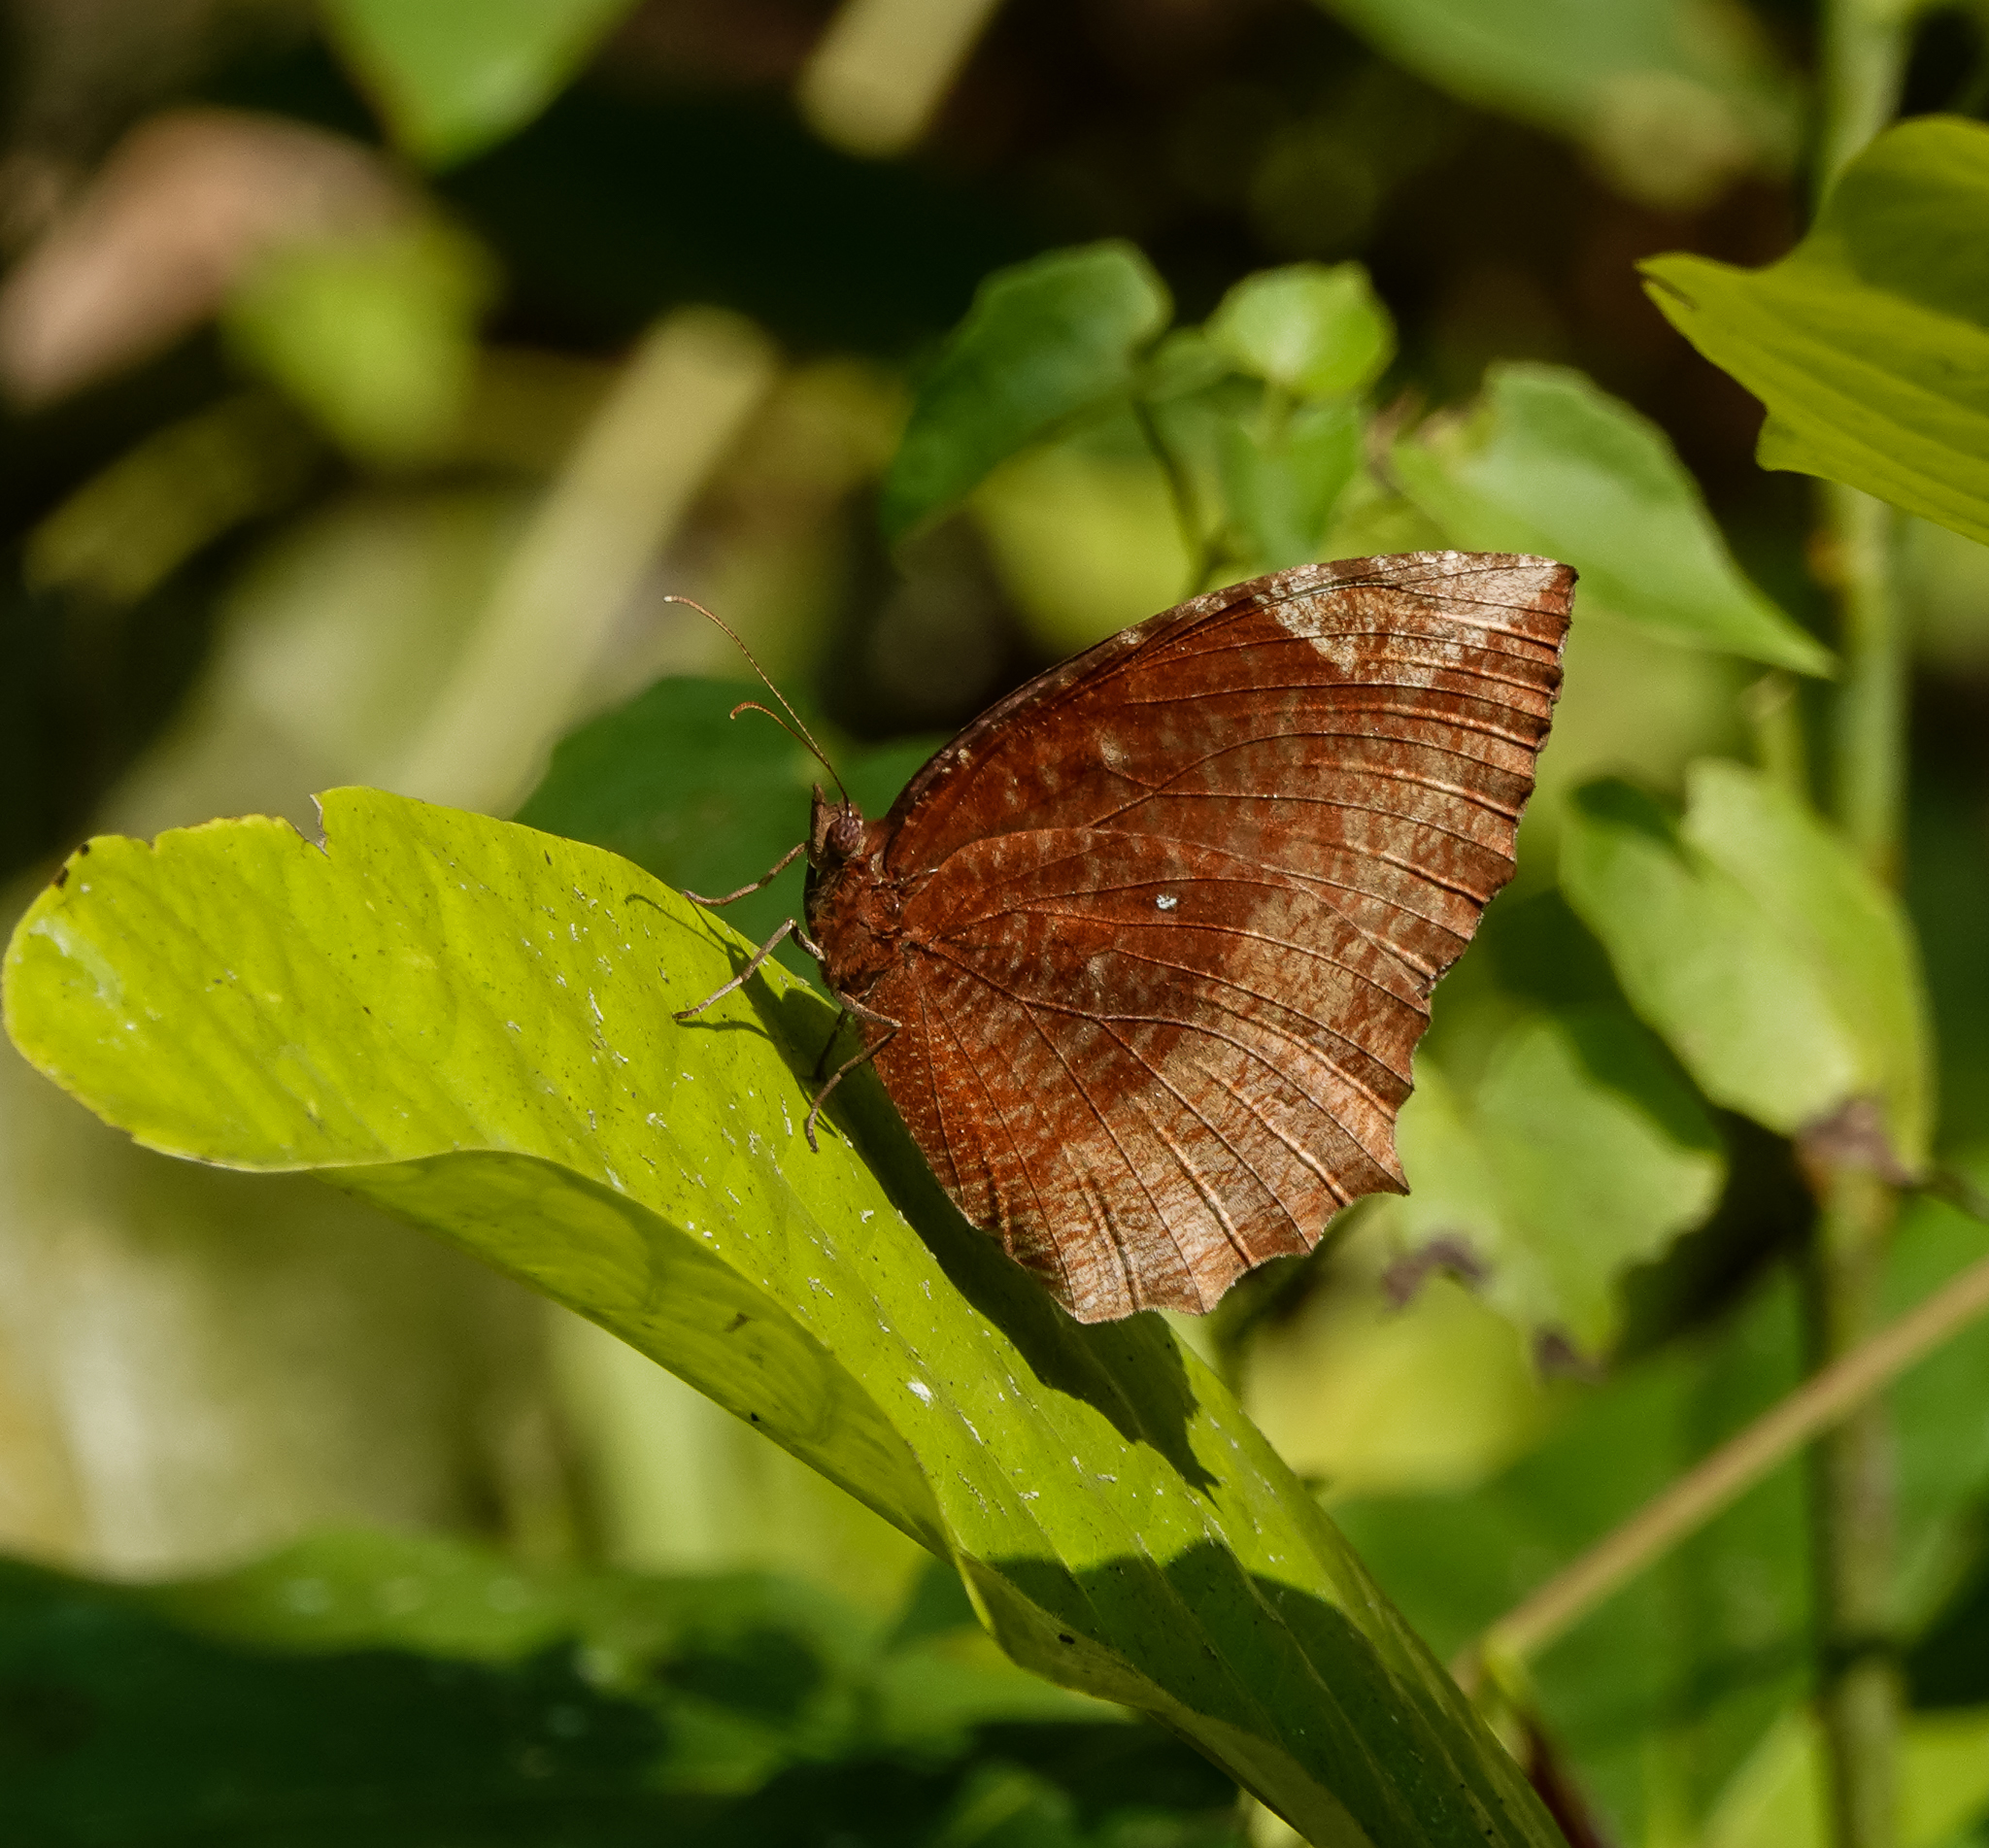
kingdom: Animalia
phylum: Arthropoda
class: Insecta
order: Lepidoptera
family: Nymphalidae
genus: Elymnias
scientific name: Elymnias hypermnestra
